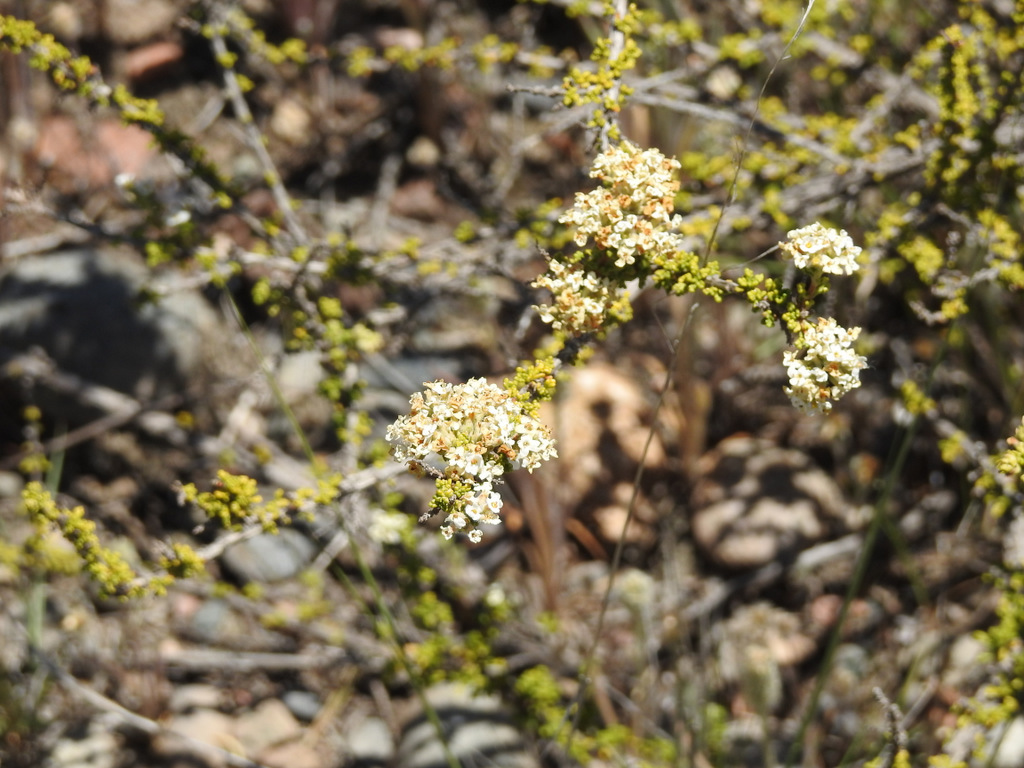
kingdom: Plantae
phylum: Tracheophyta
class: Magnoliopsida
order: Lamiales
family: Verbenaceae
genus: Acantholippia
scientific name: Acantholippia seriphioides
